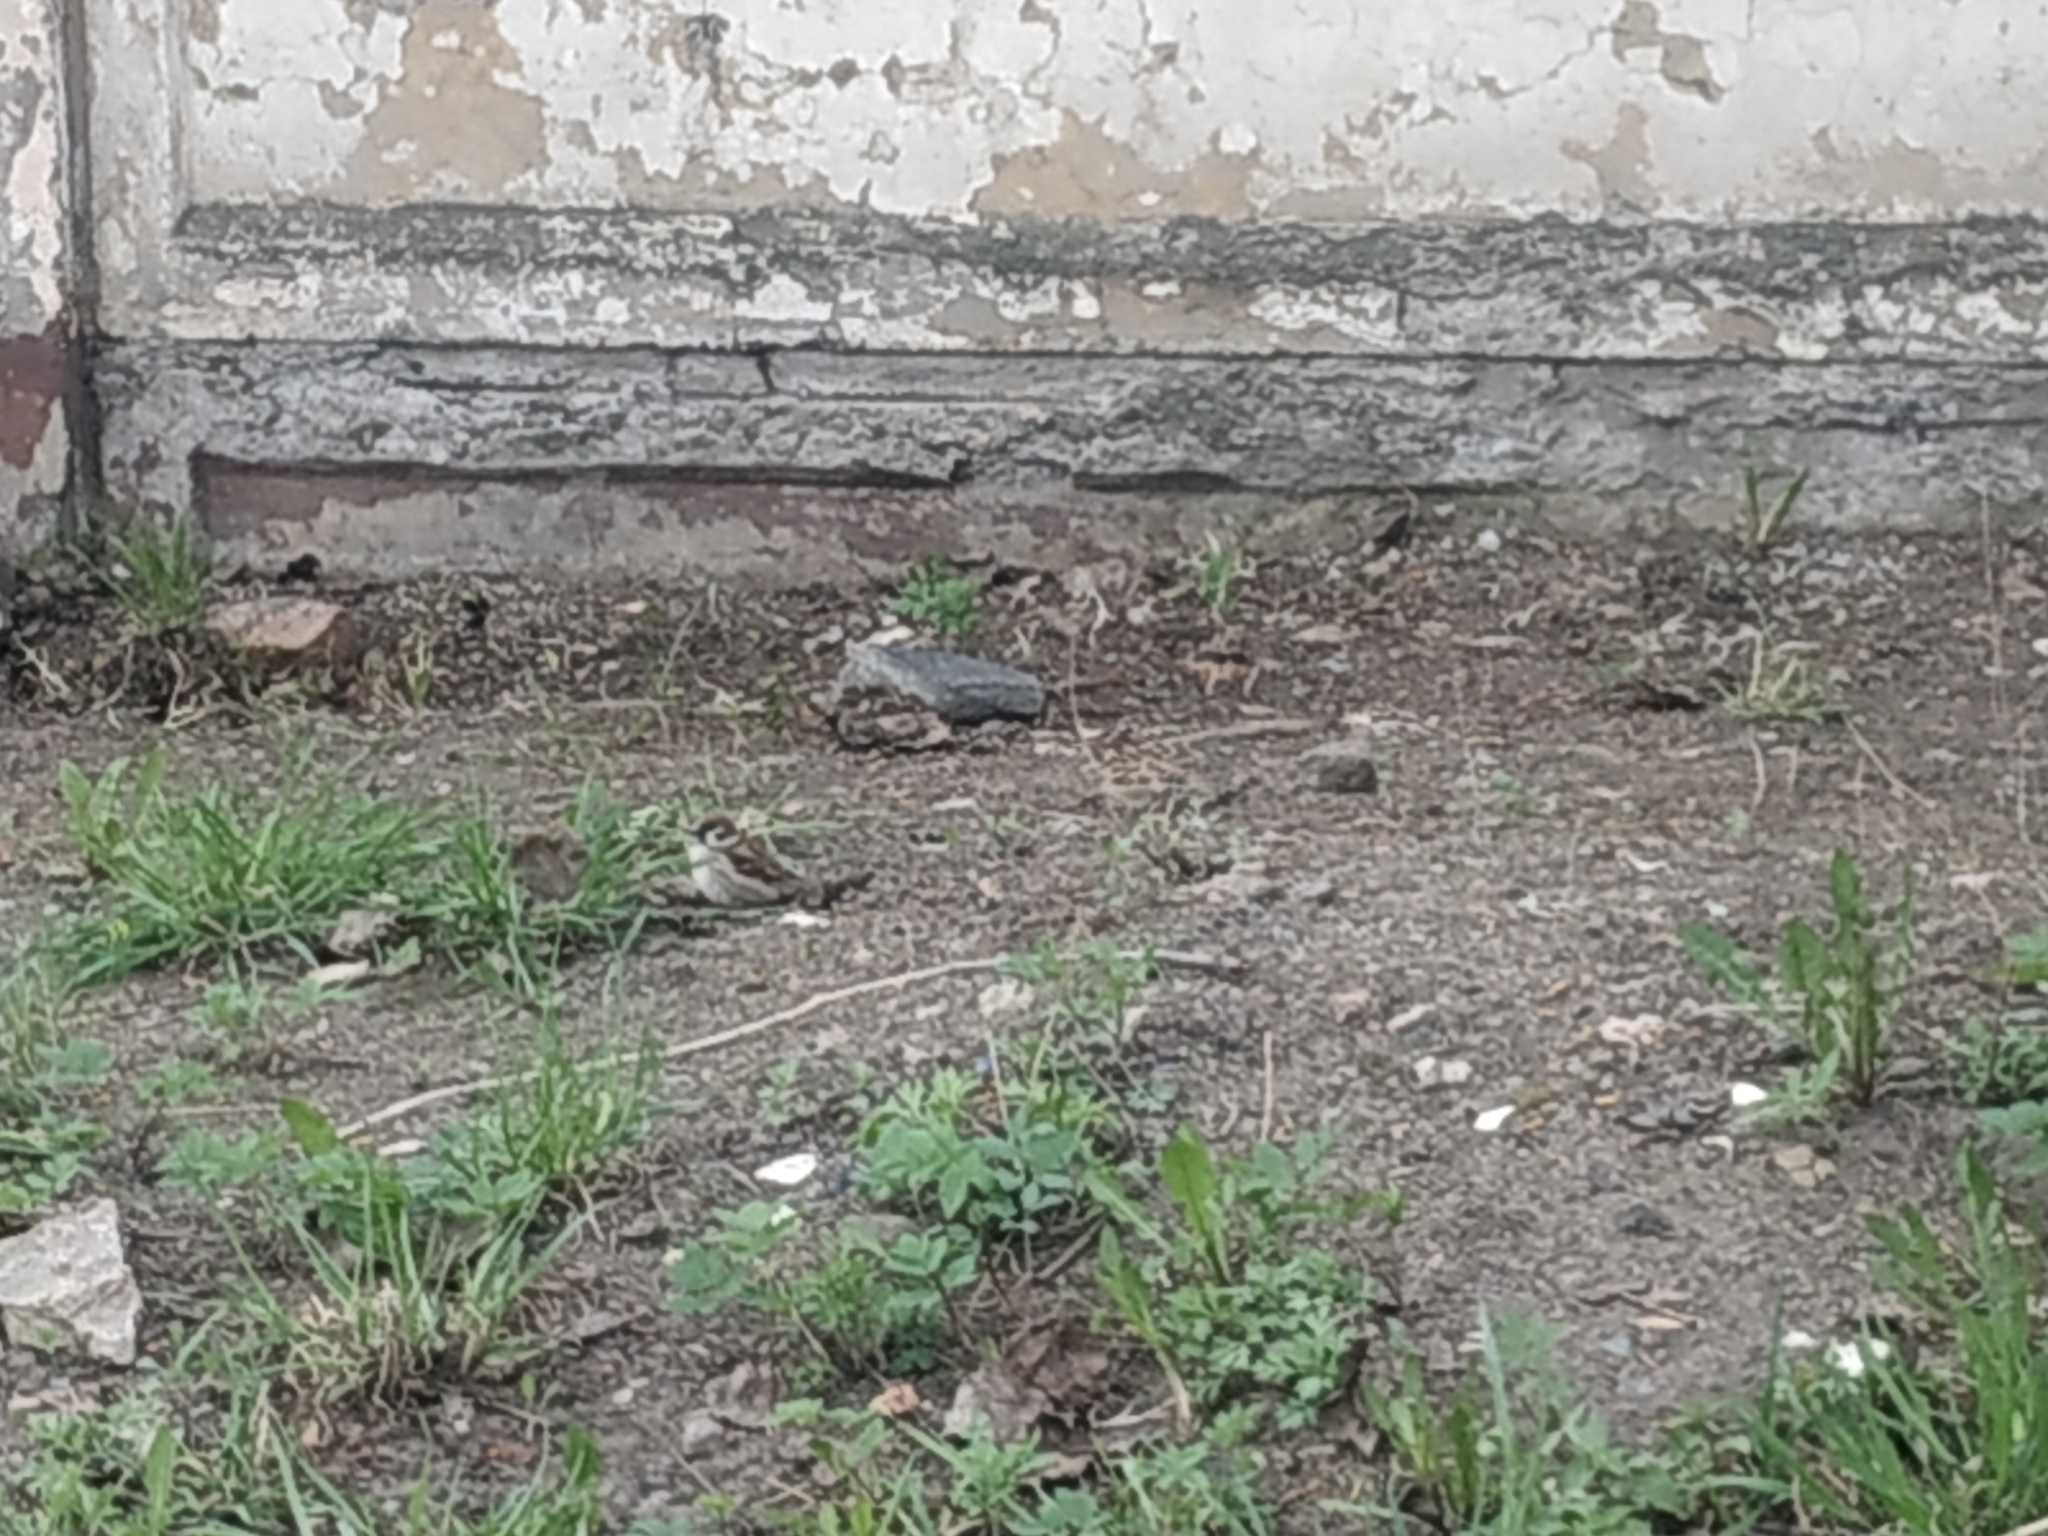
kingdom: Animalia
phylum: Chordata
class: Aves
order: Passeriformes
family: Passeridae
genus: Passer
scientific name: Passer montanus
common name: Eurasian tree sparrow
